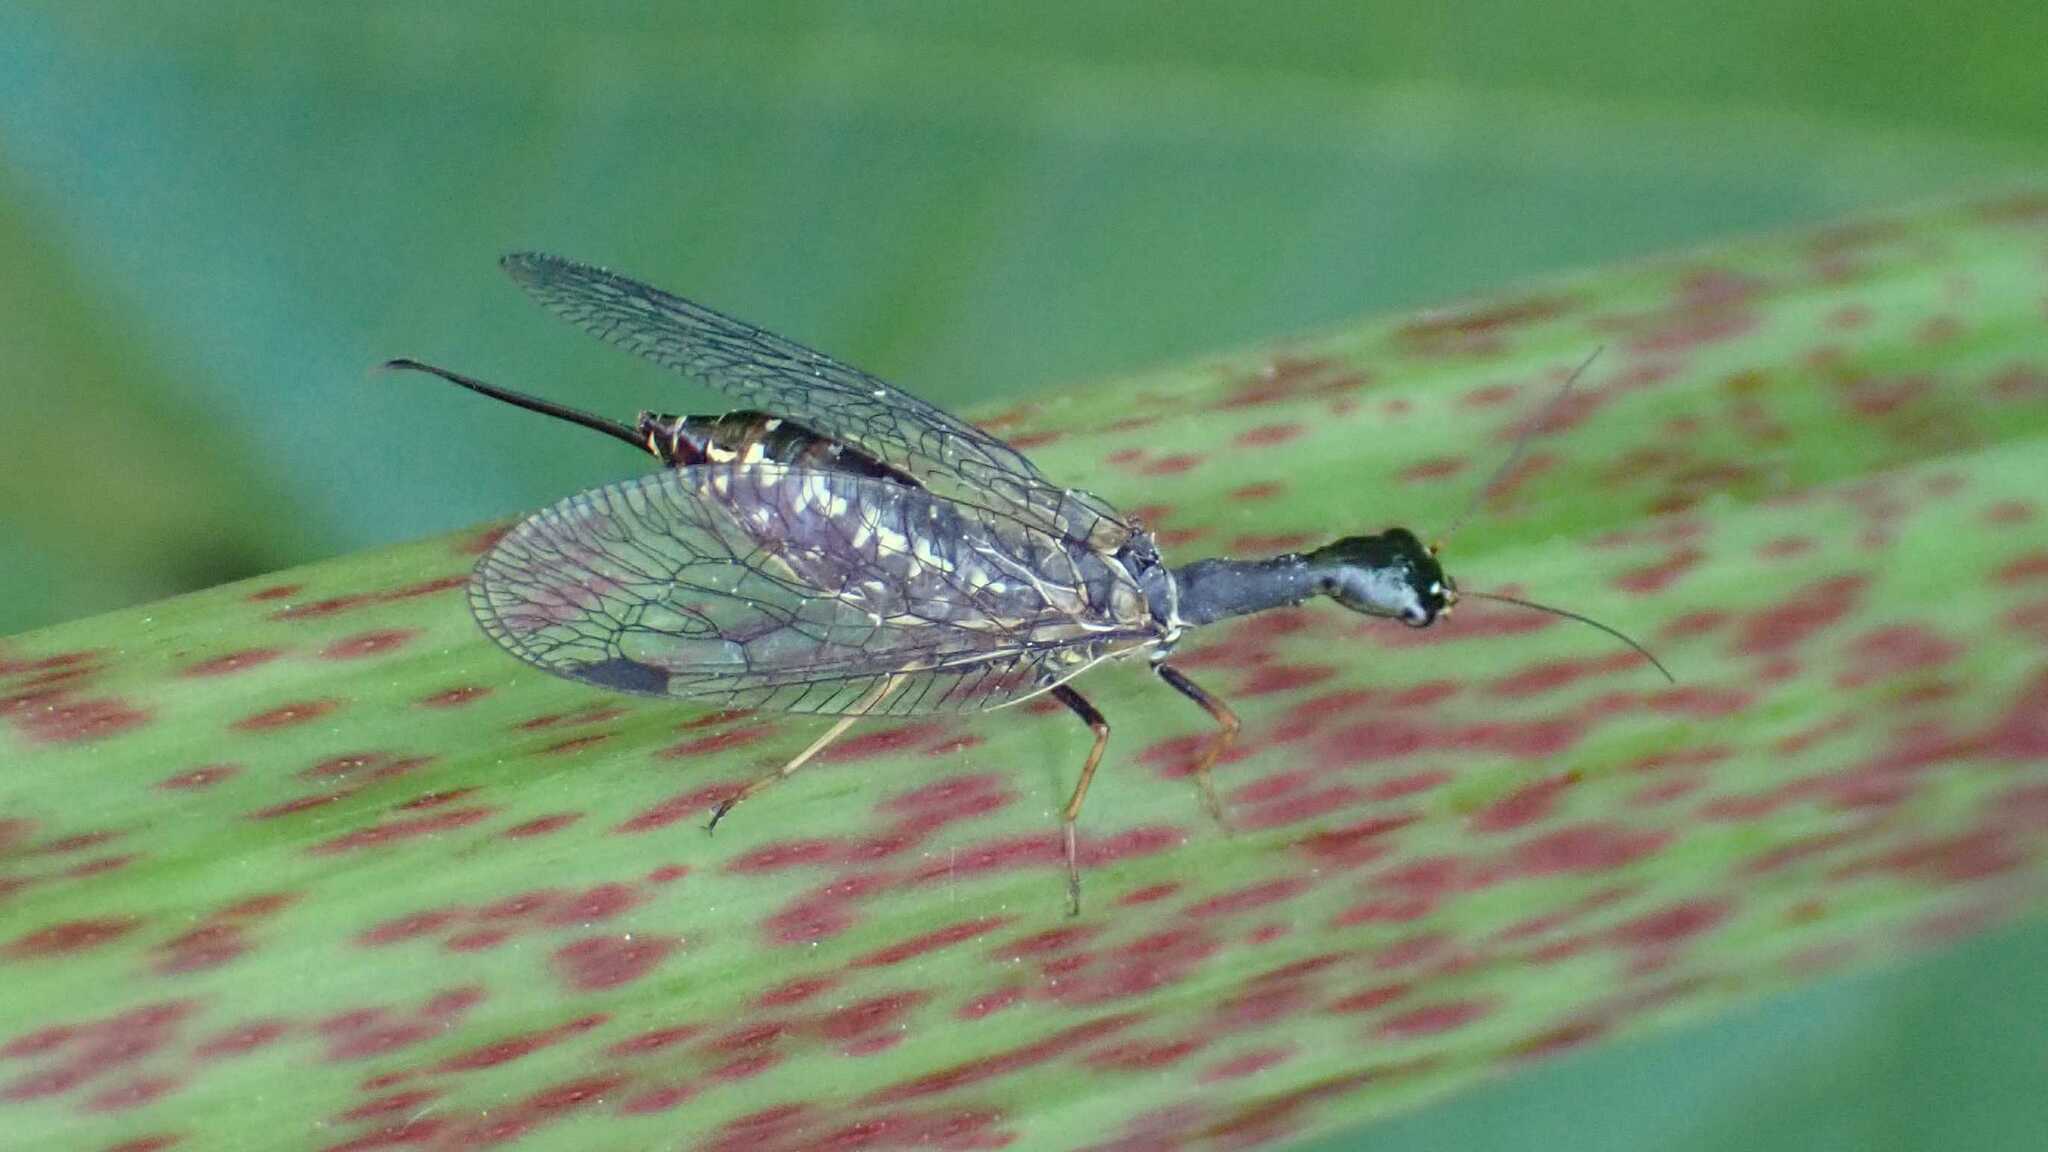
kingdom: Animalia
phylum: Arthropoda
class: Insecta
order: Raphidioptera
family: Raphidiidae
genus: Phaeostigma
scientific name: Phaeostigma notatum
